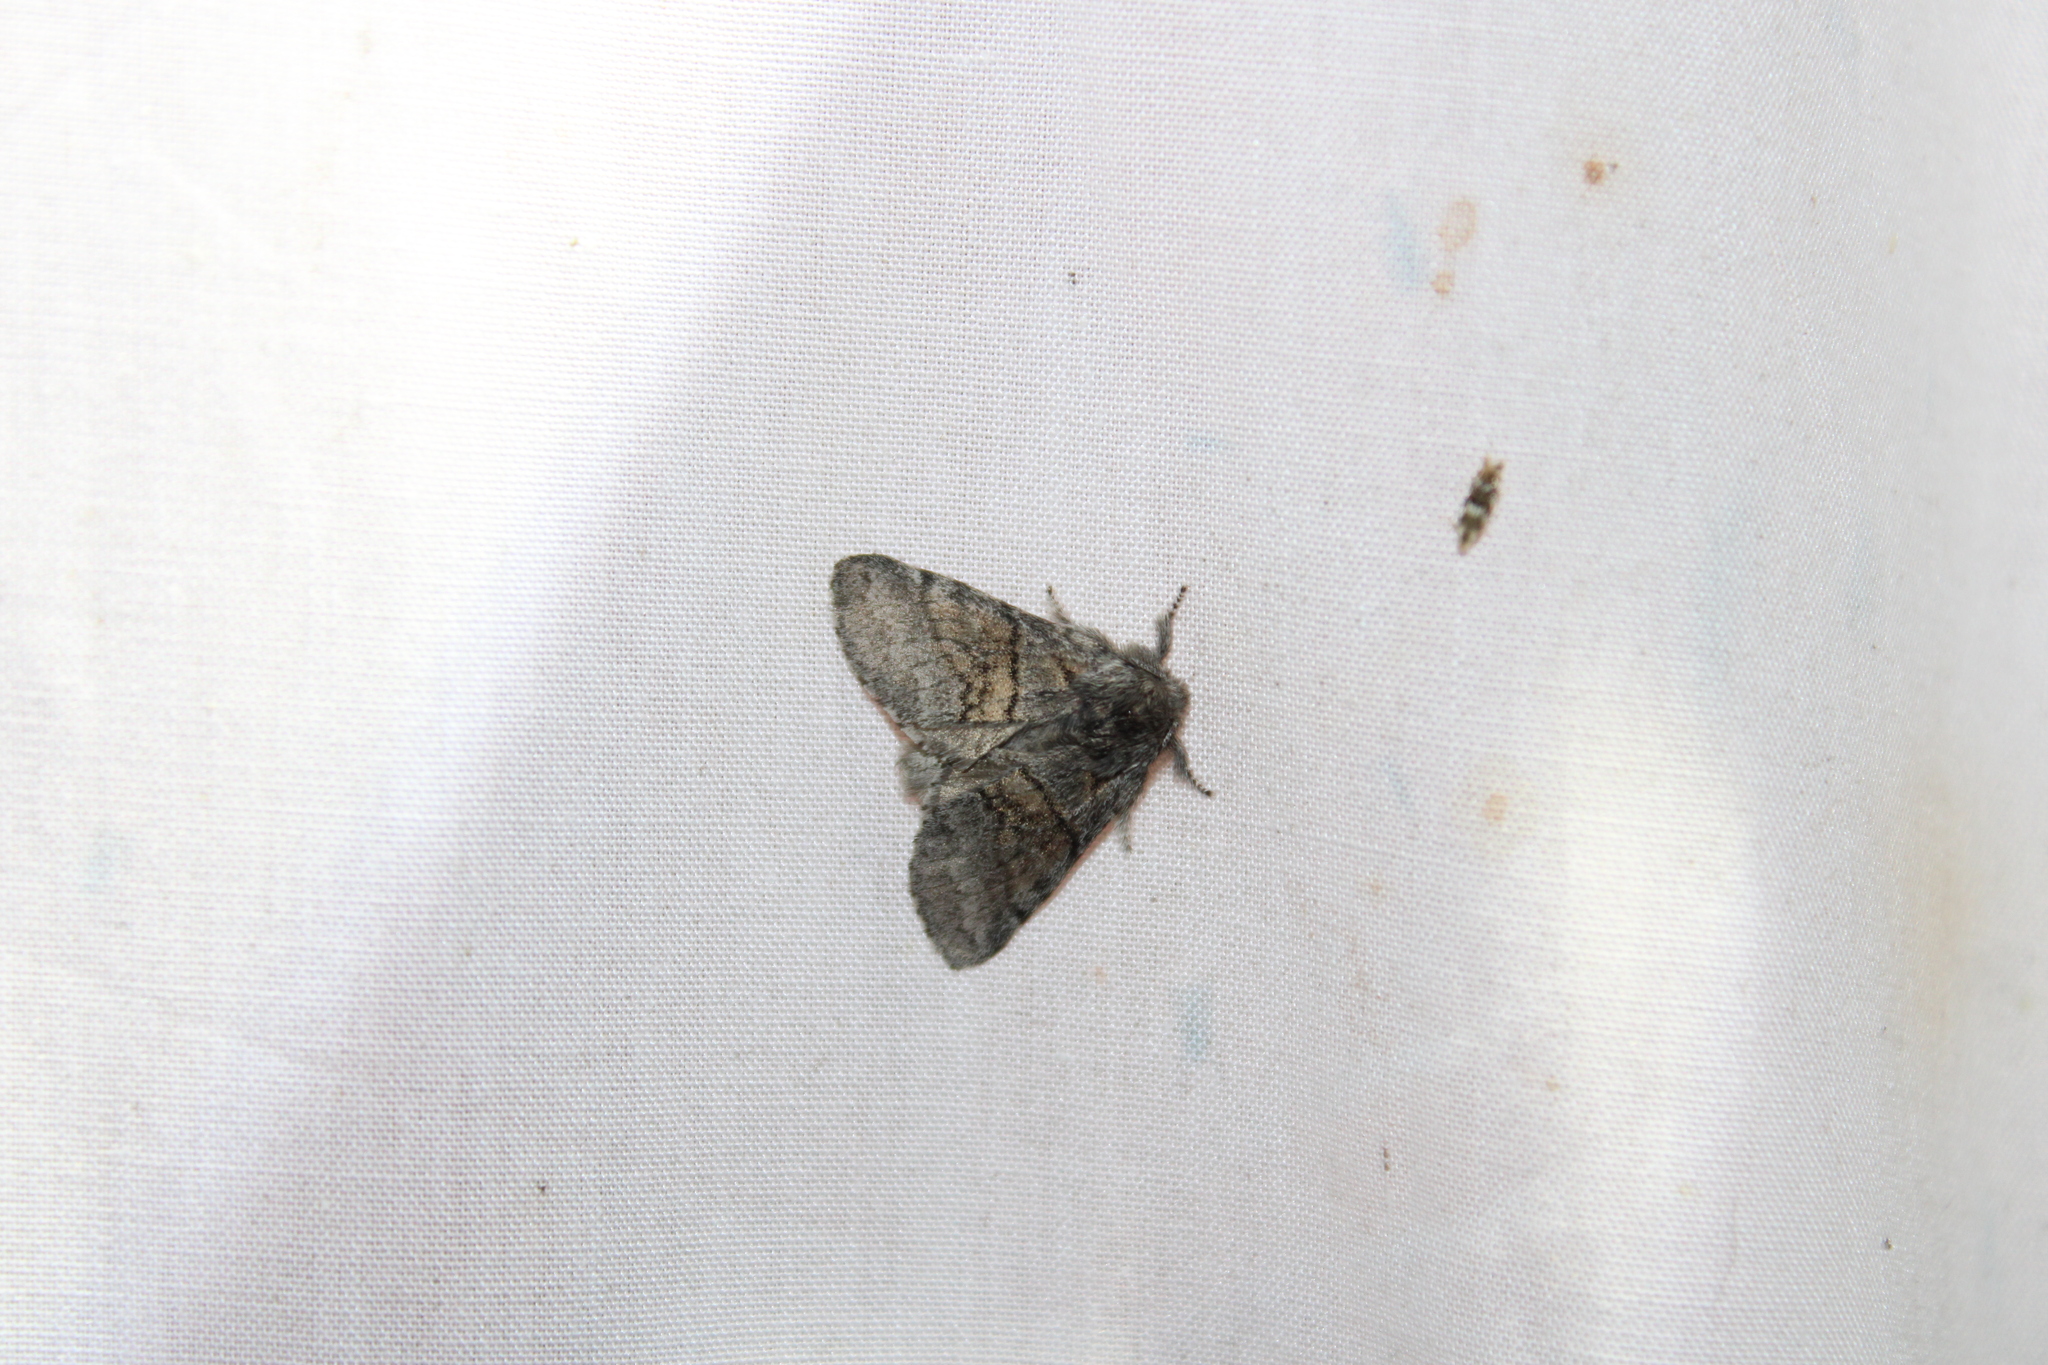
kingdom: Animalia
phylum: Arthropoda
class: Insecta
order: Lepidoptera
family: Notodontidae
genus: Gluphisia
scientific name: Gluphisia septentrionis
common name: Common gluphisia
